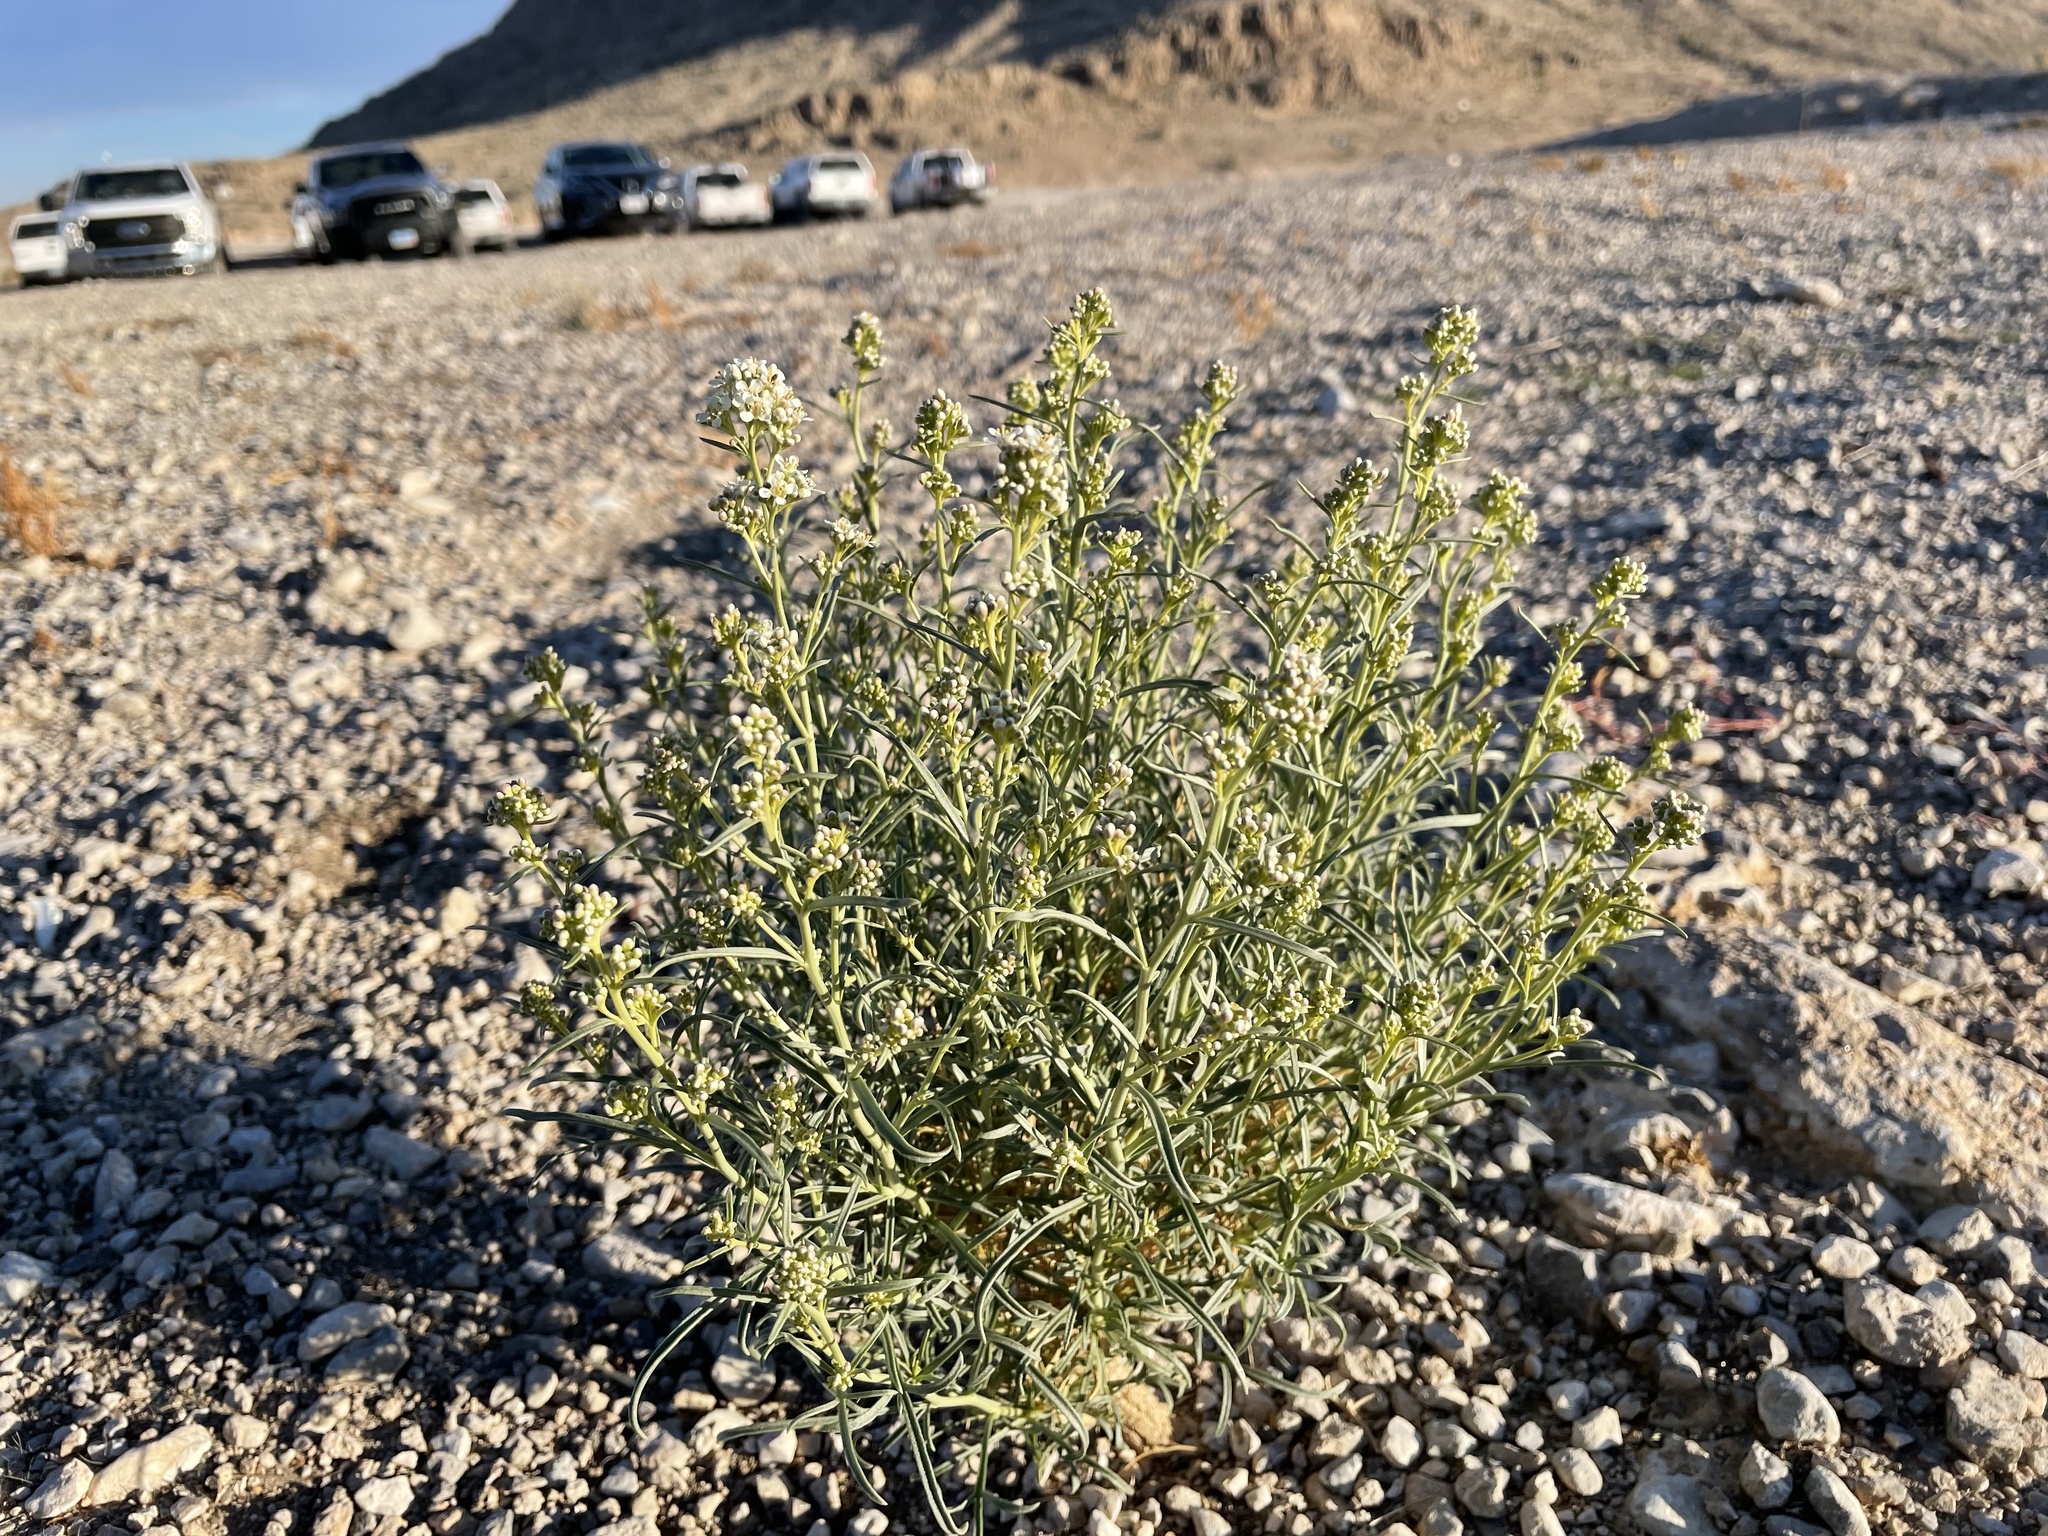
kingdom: Plantae
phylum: Tracheophyta
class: Magnoliopsida
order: Brassicales
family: Brassicaceae
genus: Lepidium
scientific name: Lepidium fremontii
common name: Fremont's pepperwort
